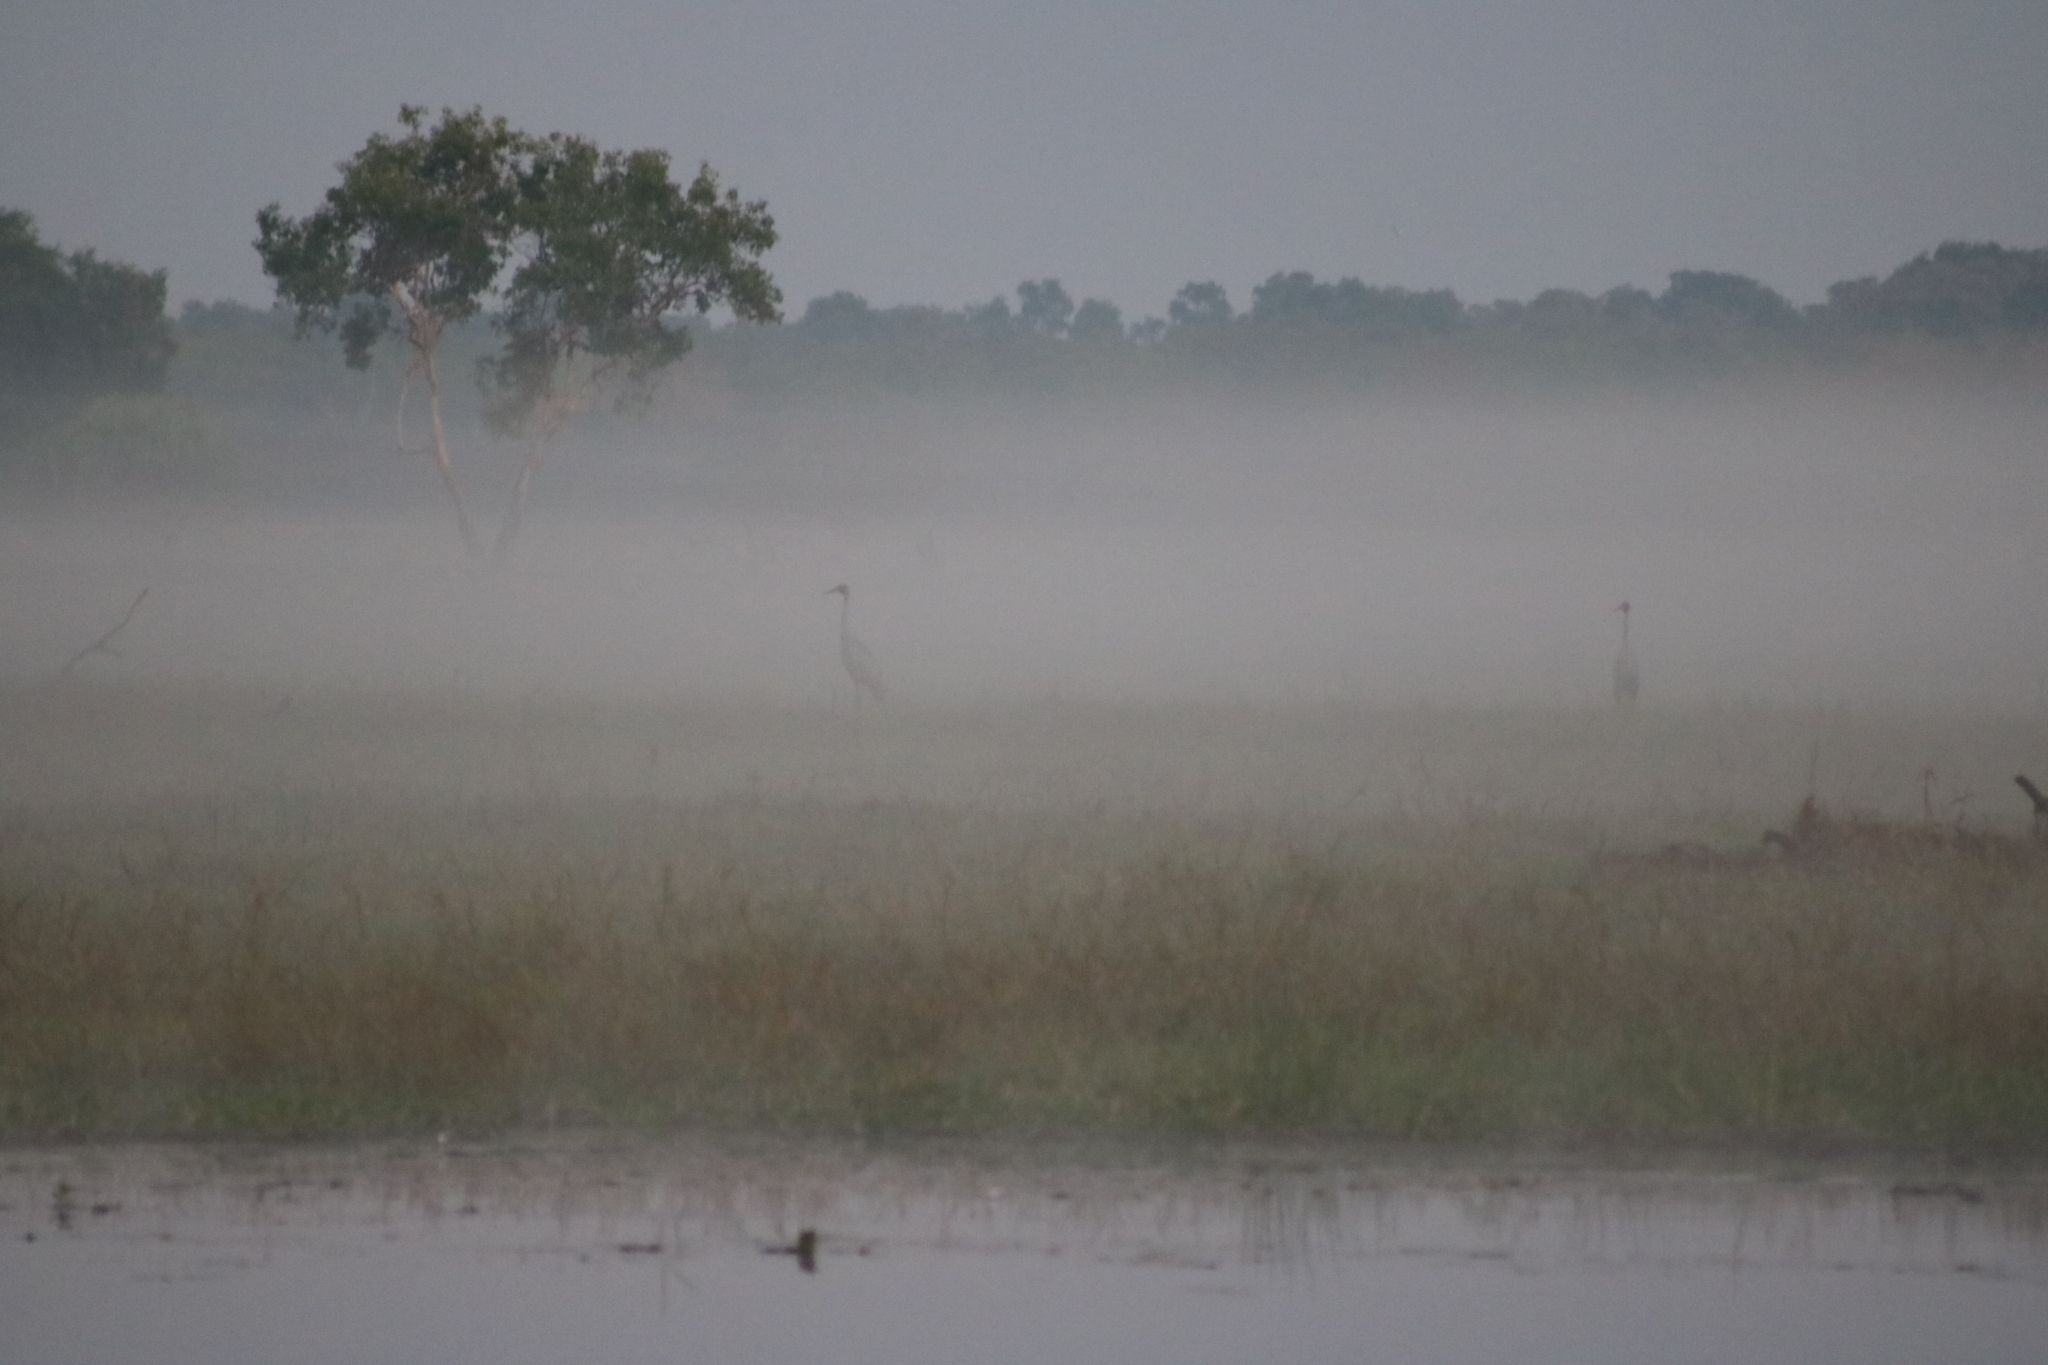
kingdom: Animalia
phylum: Chordata
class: Aves
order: Gruiformes
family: Gruidae
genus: Grus
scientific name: Grus rubicunda
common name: Brolga
